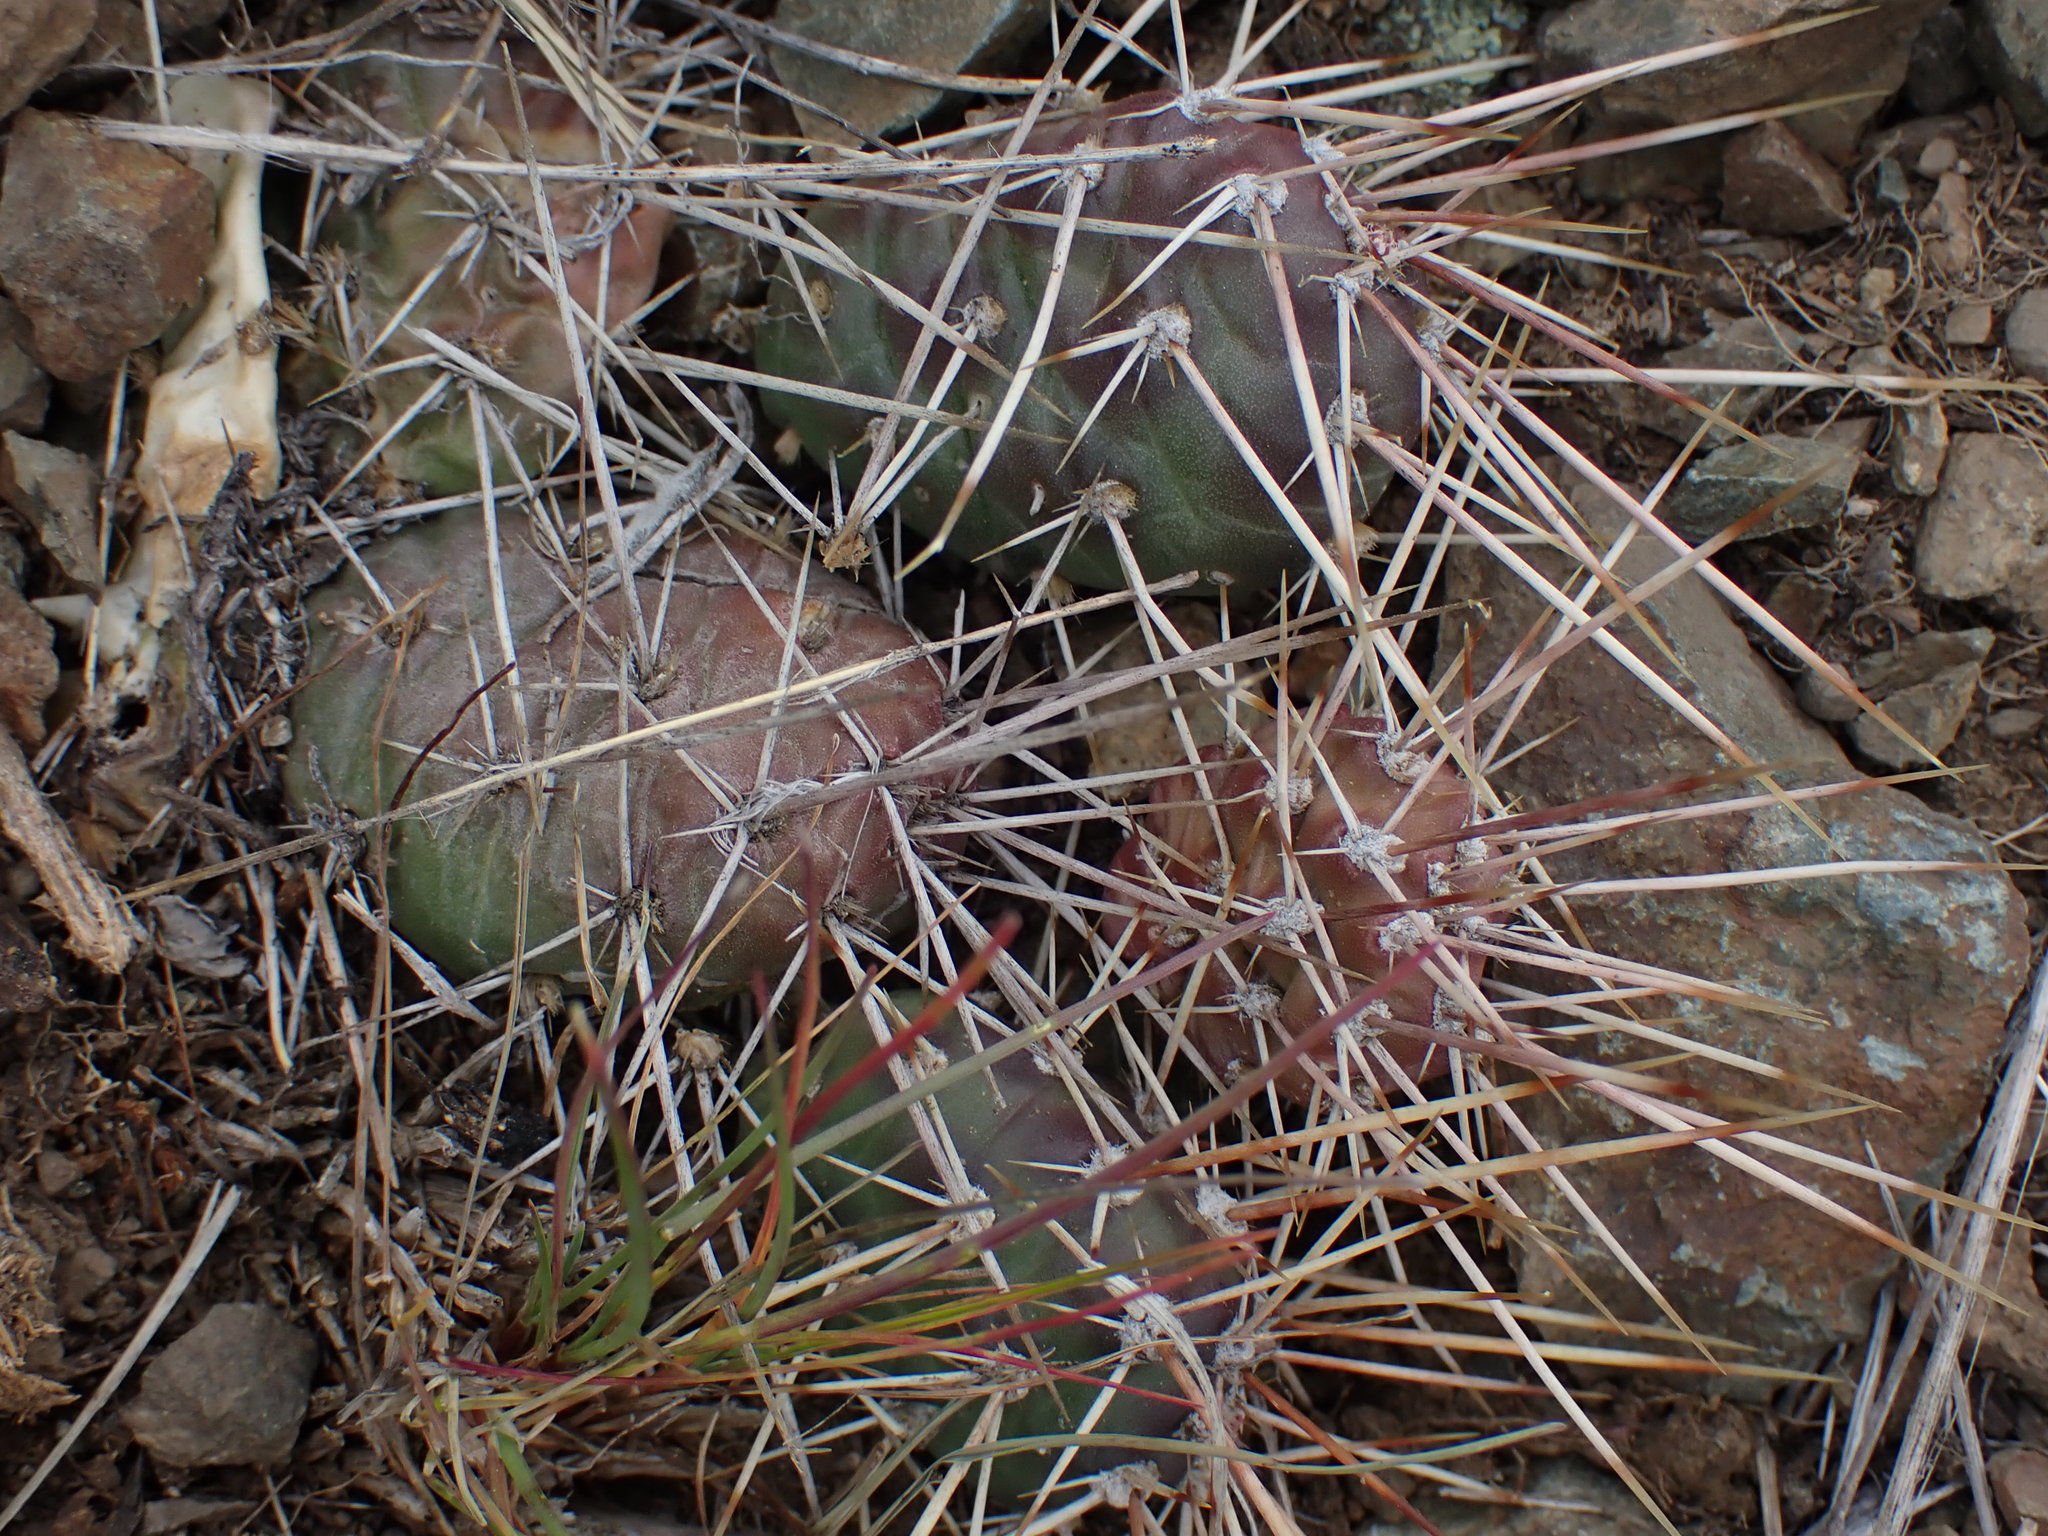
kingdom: Plantae
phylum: Tracheophyta
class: Magnoliopsida
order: Caryophyllales
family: Cactaceae
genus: Opuntia
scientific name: Opuntia fragilis
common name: Brittle cactus
